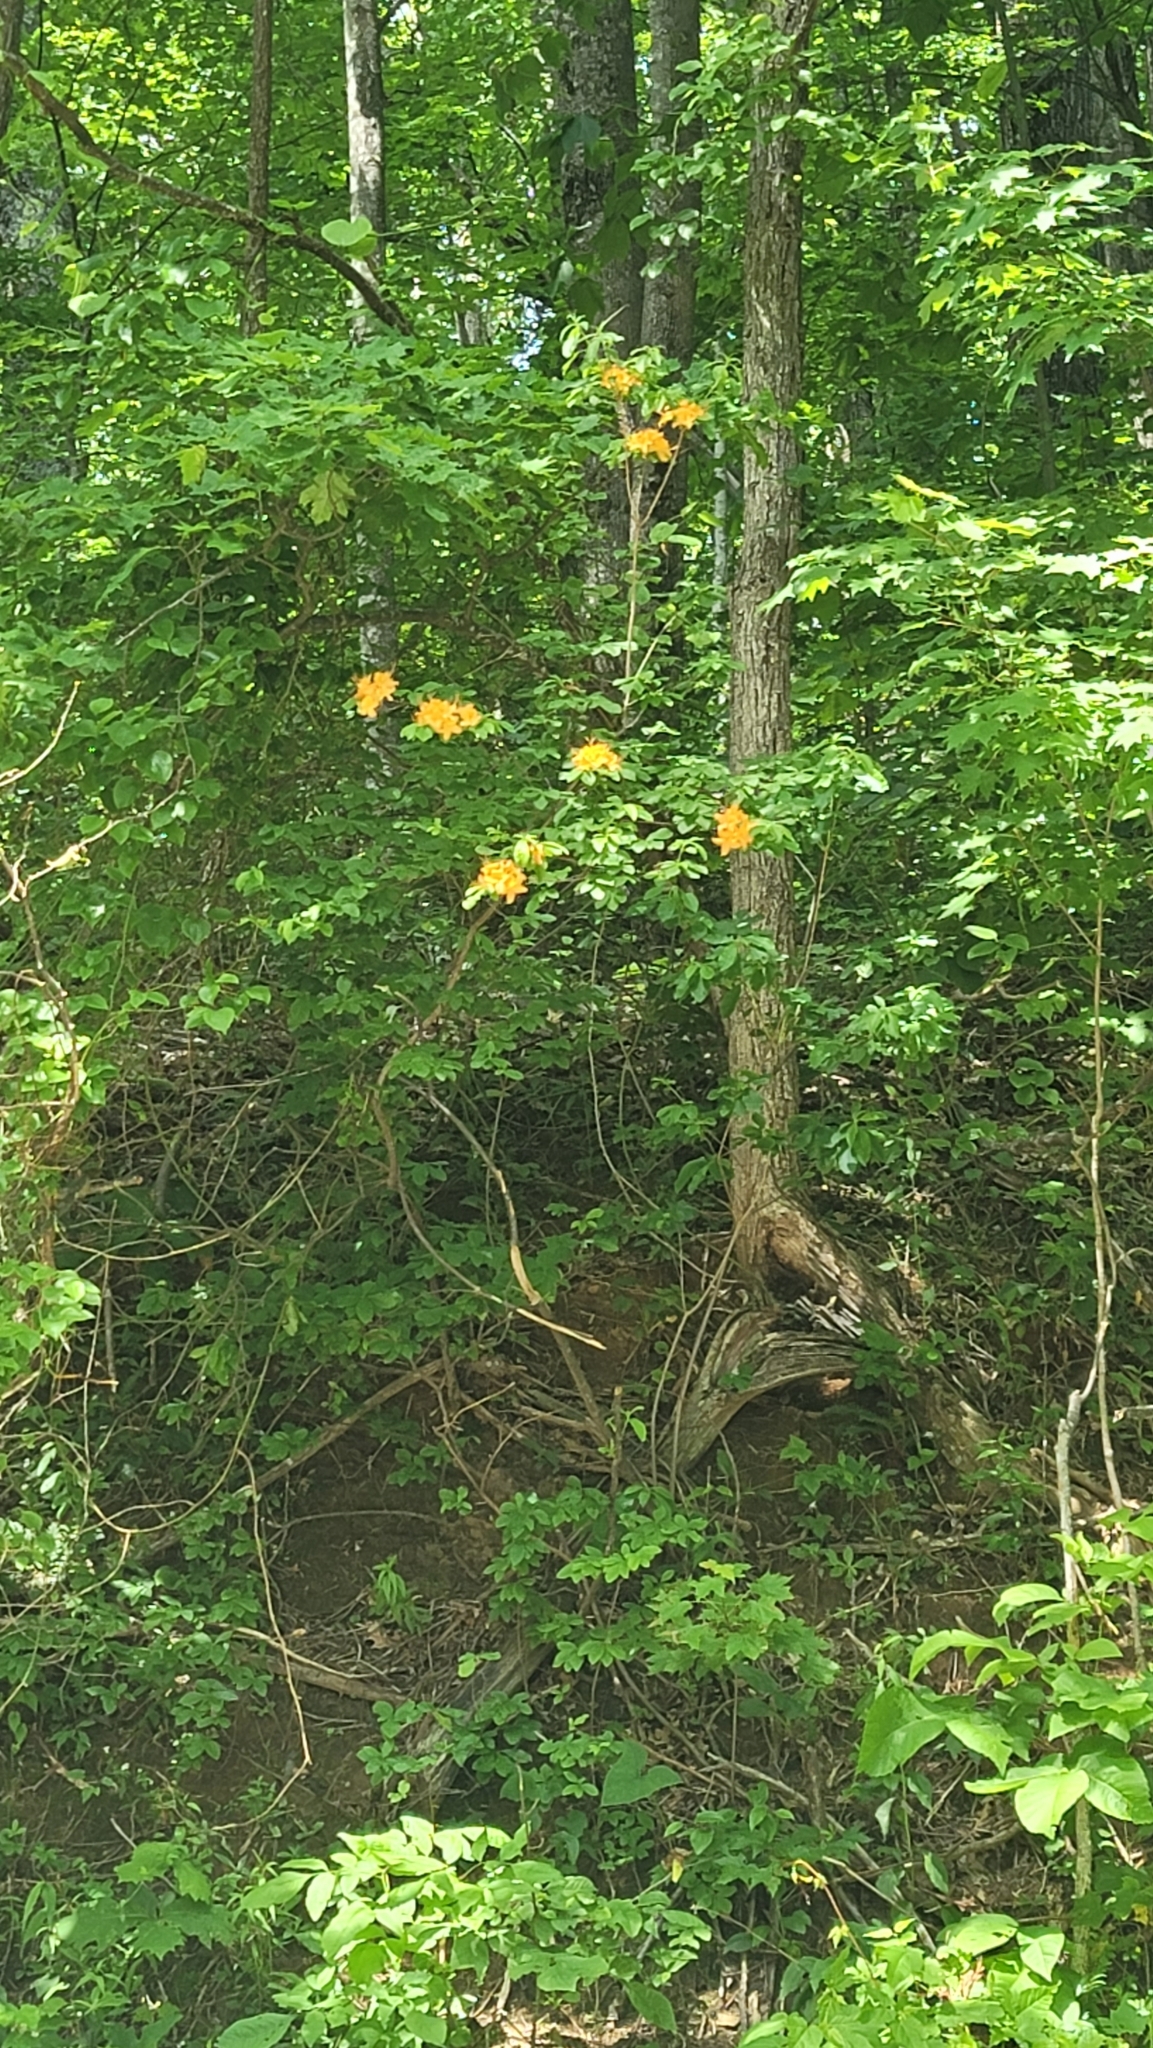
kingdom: Plantae
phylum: Tracheophyta
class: Magnoliopsida
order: Ericales
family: Ericaceae
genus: Rhododendron
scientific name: Rhododendron calendulaceum
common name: Flame azalea
